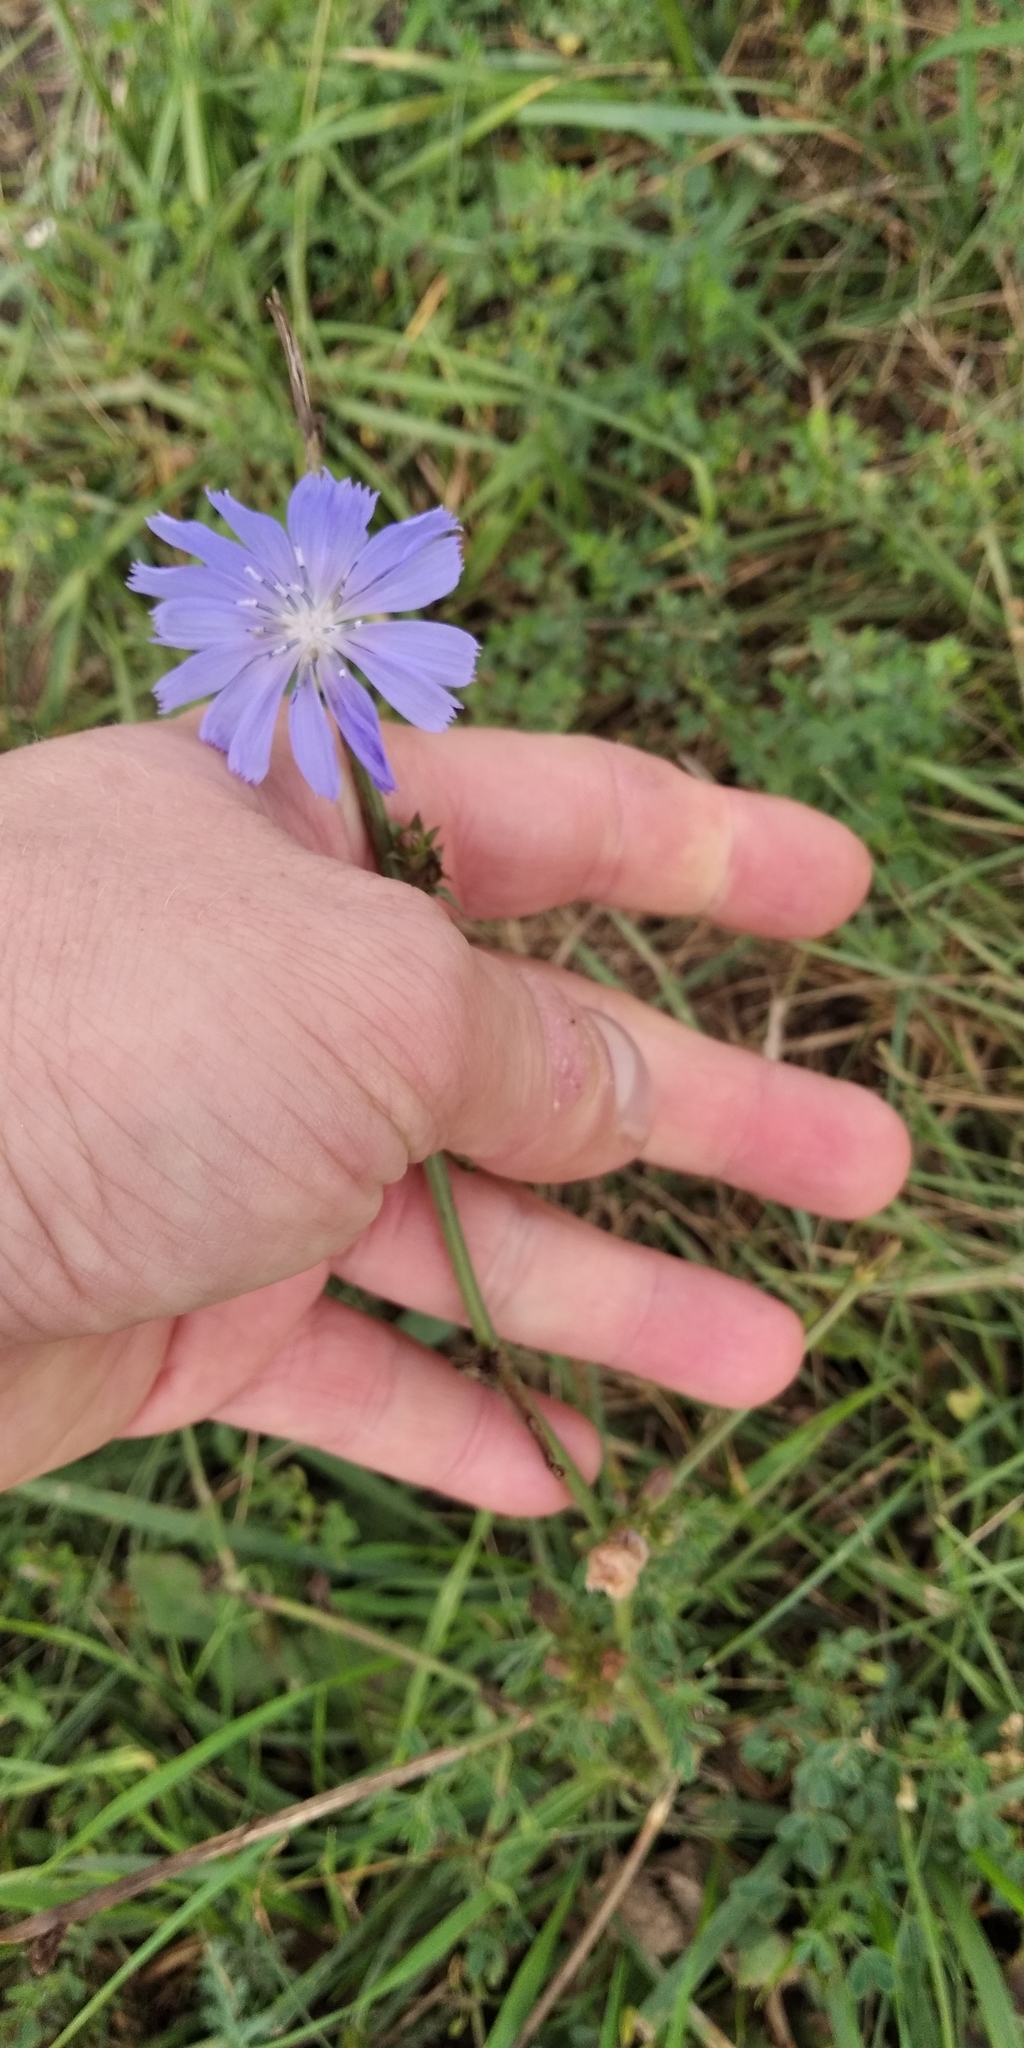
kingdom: Plantae
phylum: Tracheophyta
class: Magnoliopsida
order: Asterales
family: Asteraceae
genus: Cichorium
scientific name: Cichorium intybus
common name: Chicory
